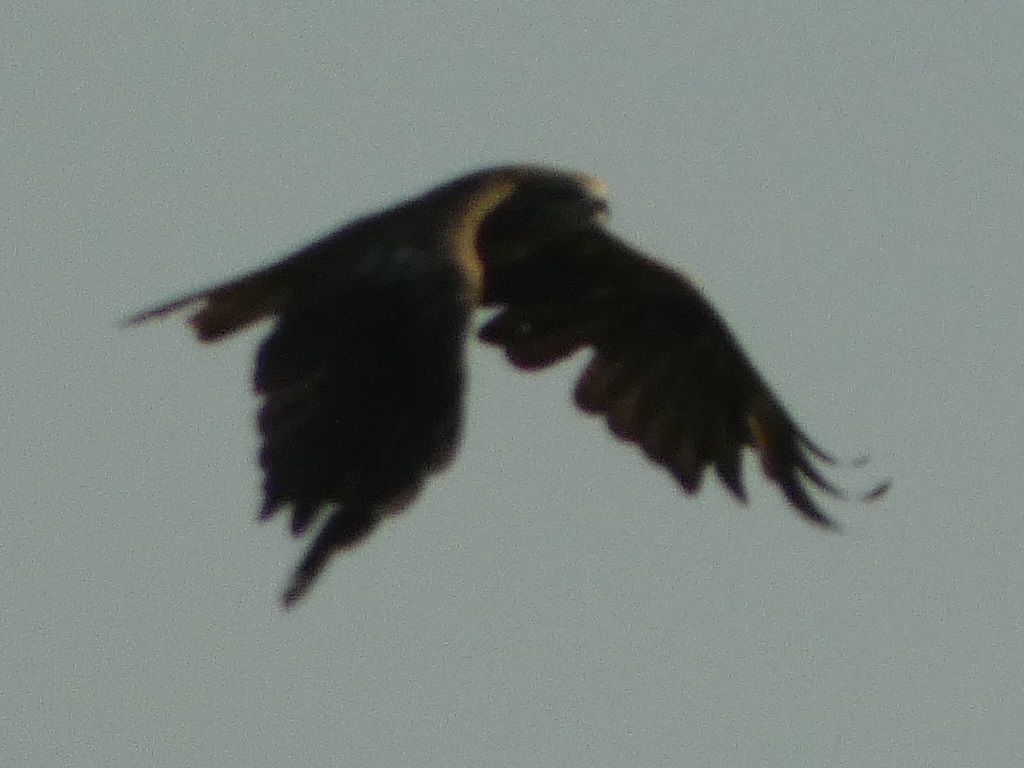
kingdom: Animalia
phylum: Chordata
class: Aves
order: Accipitriformes
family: Accipitridae
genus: Milvus
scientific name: Milvus migrans
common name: Black kite
